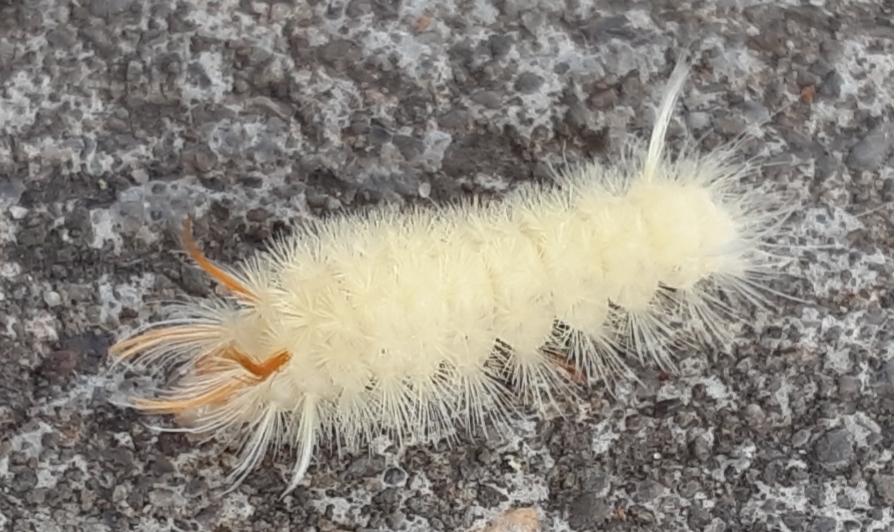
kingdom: Animalia
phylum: Arthropoda
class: Insecta
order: Lepidoptera
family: Erebidae
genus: Halysidota
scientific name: Halysidota harrisii
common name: Sycamore tussock moth
